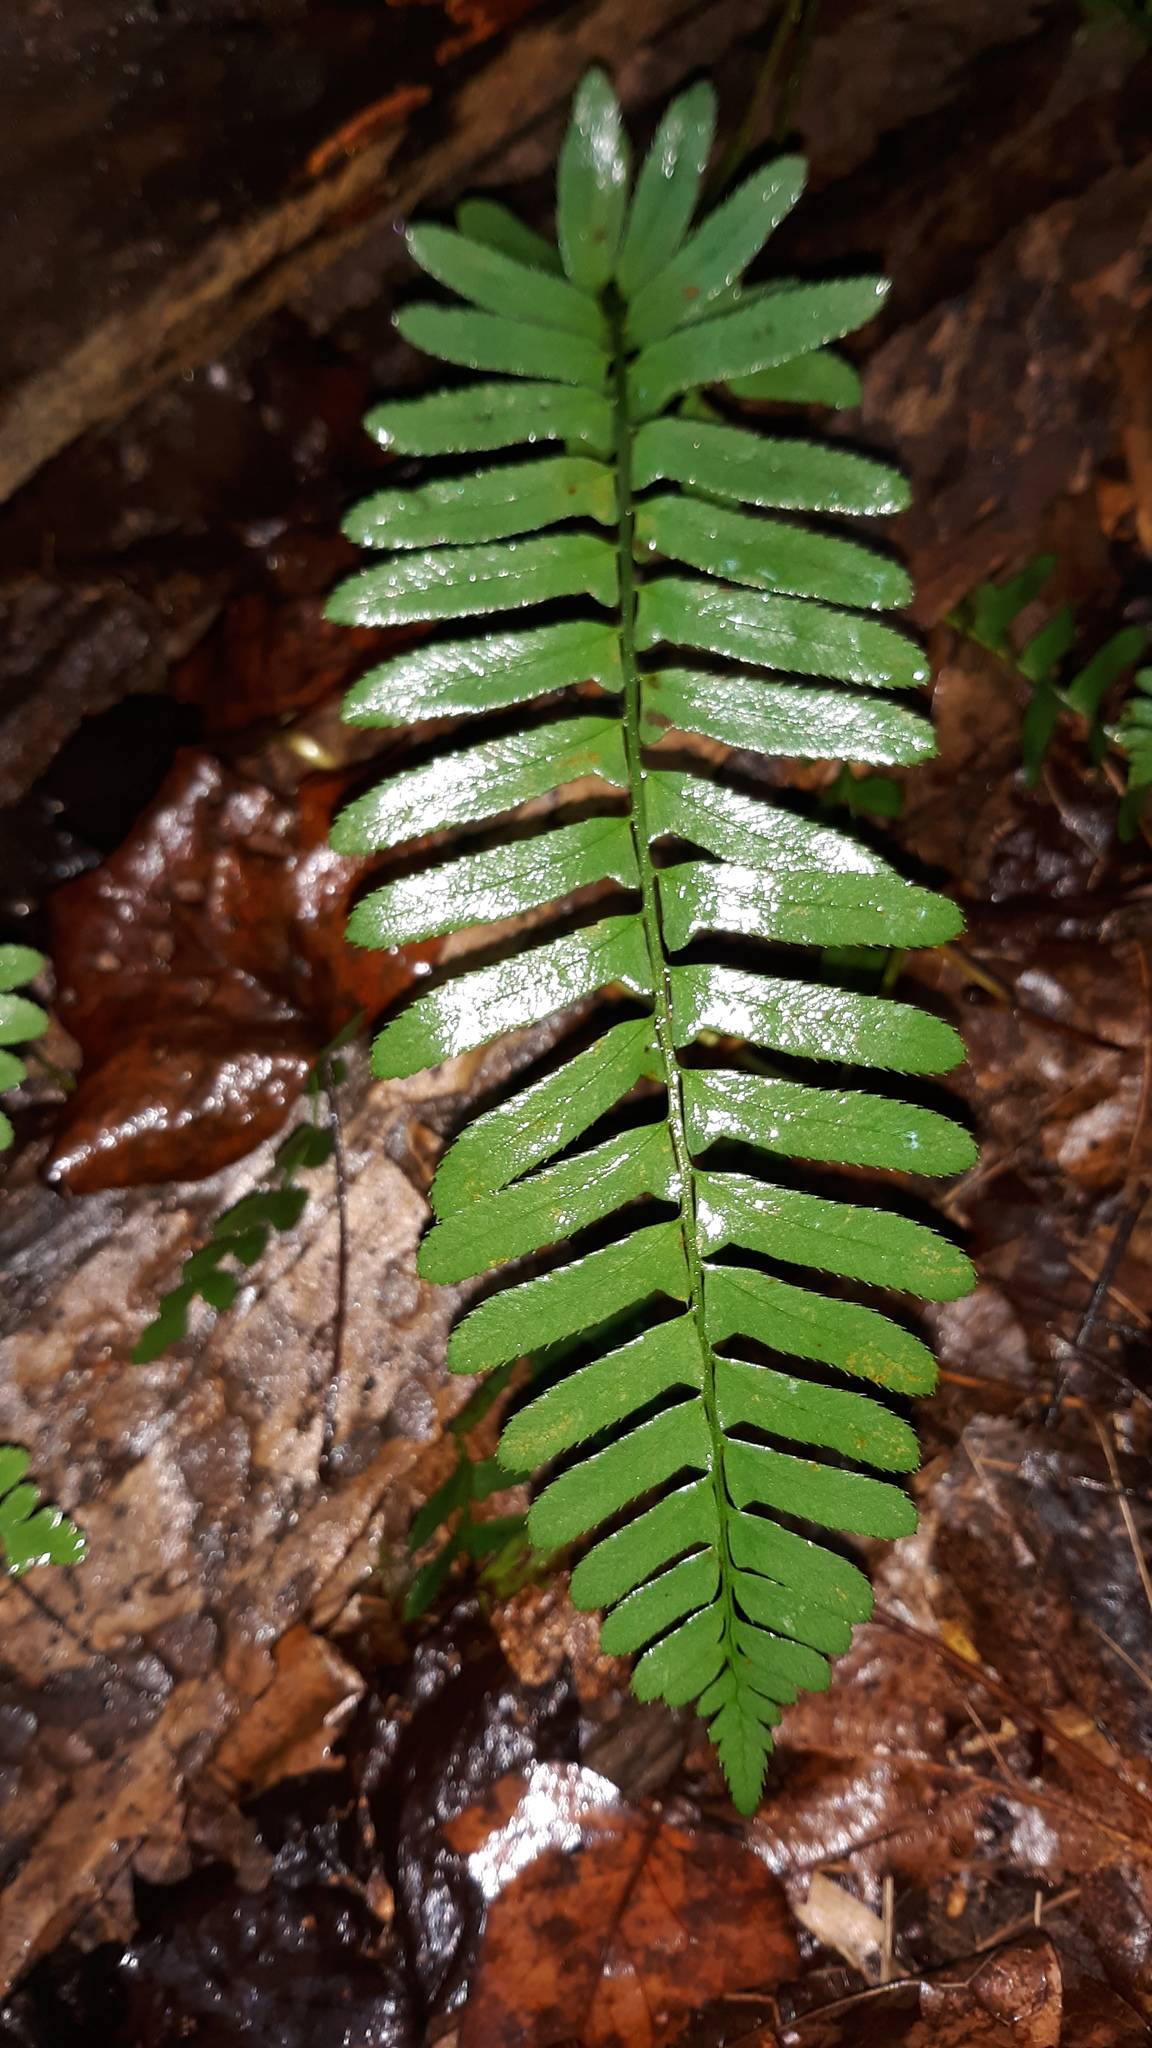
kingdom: Plantae
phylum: Tracheophyta
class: Polypodiopsida
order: Polypodiales
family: Dryopteridaceae
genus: Polystichum
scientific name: Polystichum acrostichoides
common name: Christmas fern
